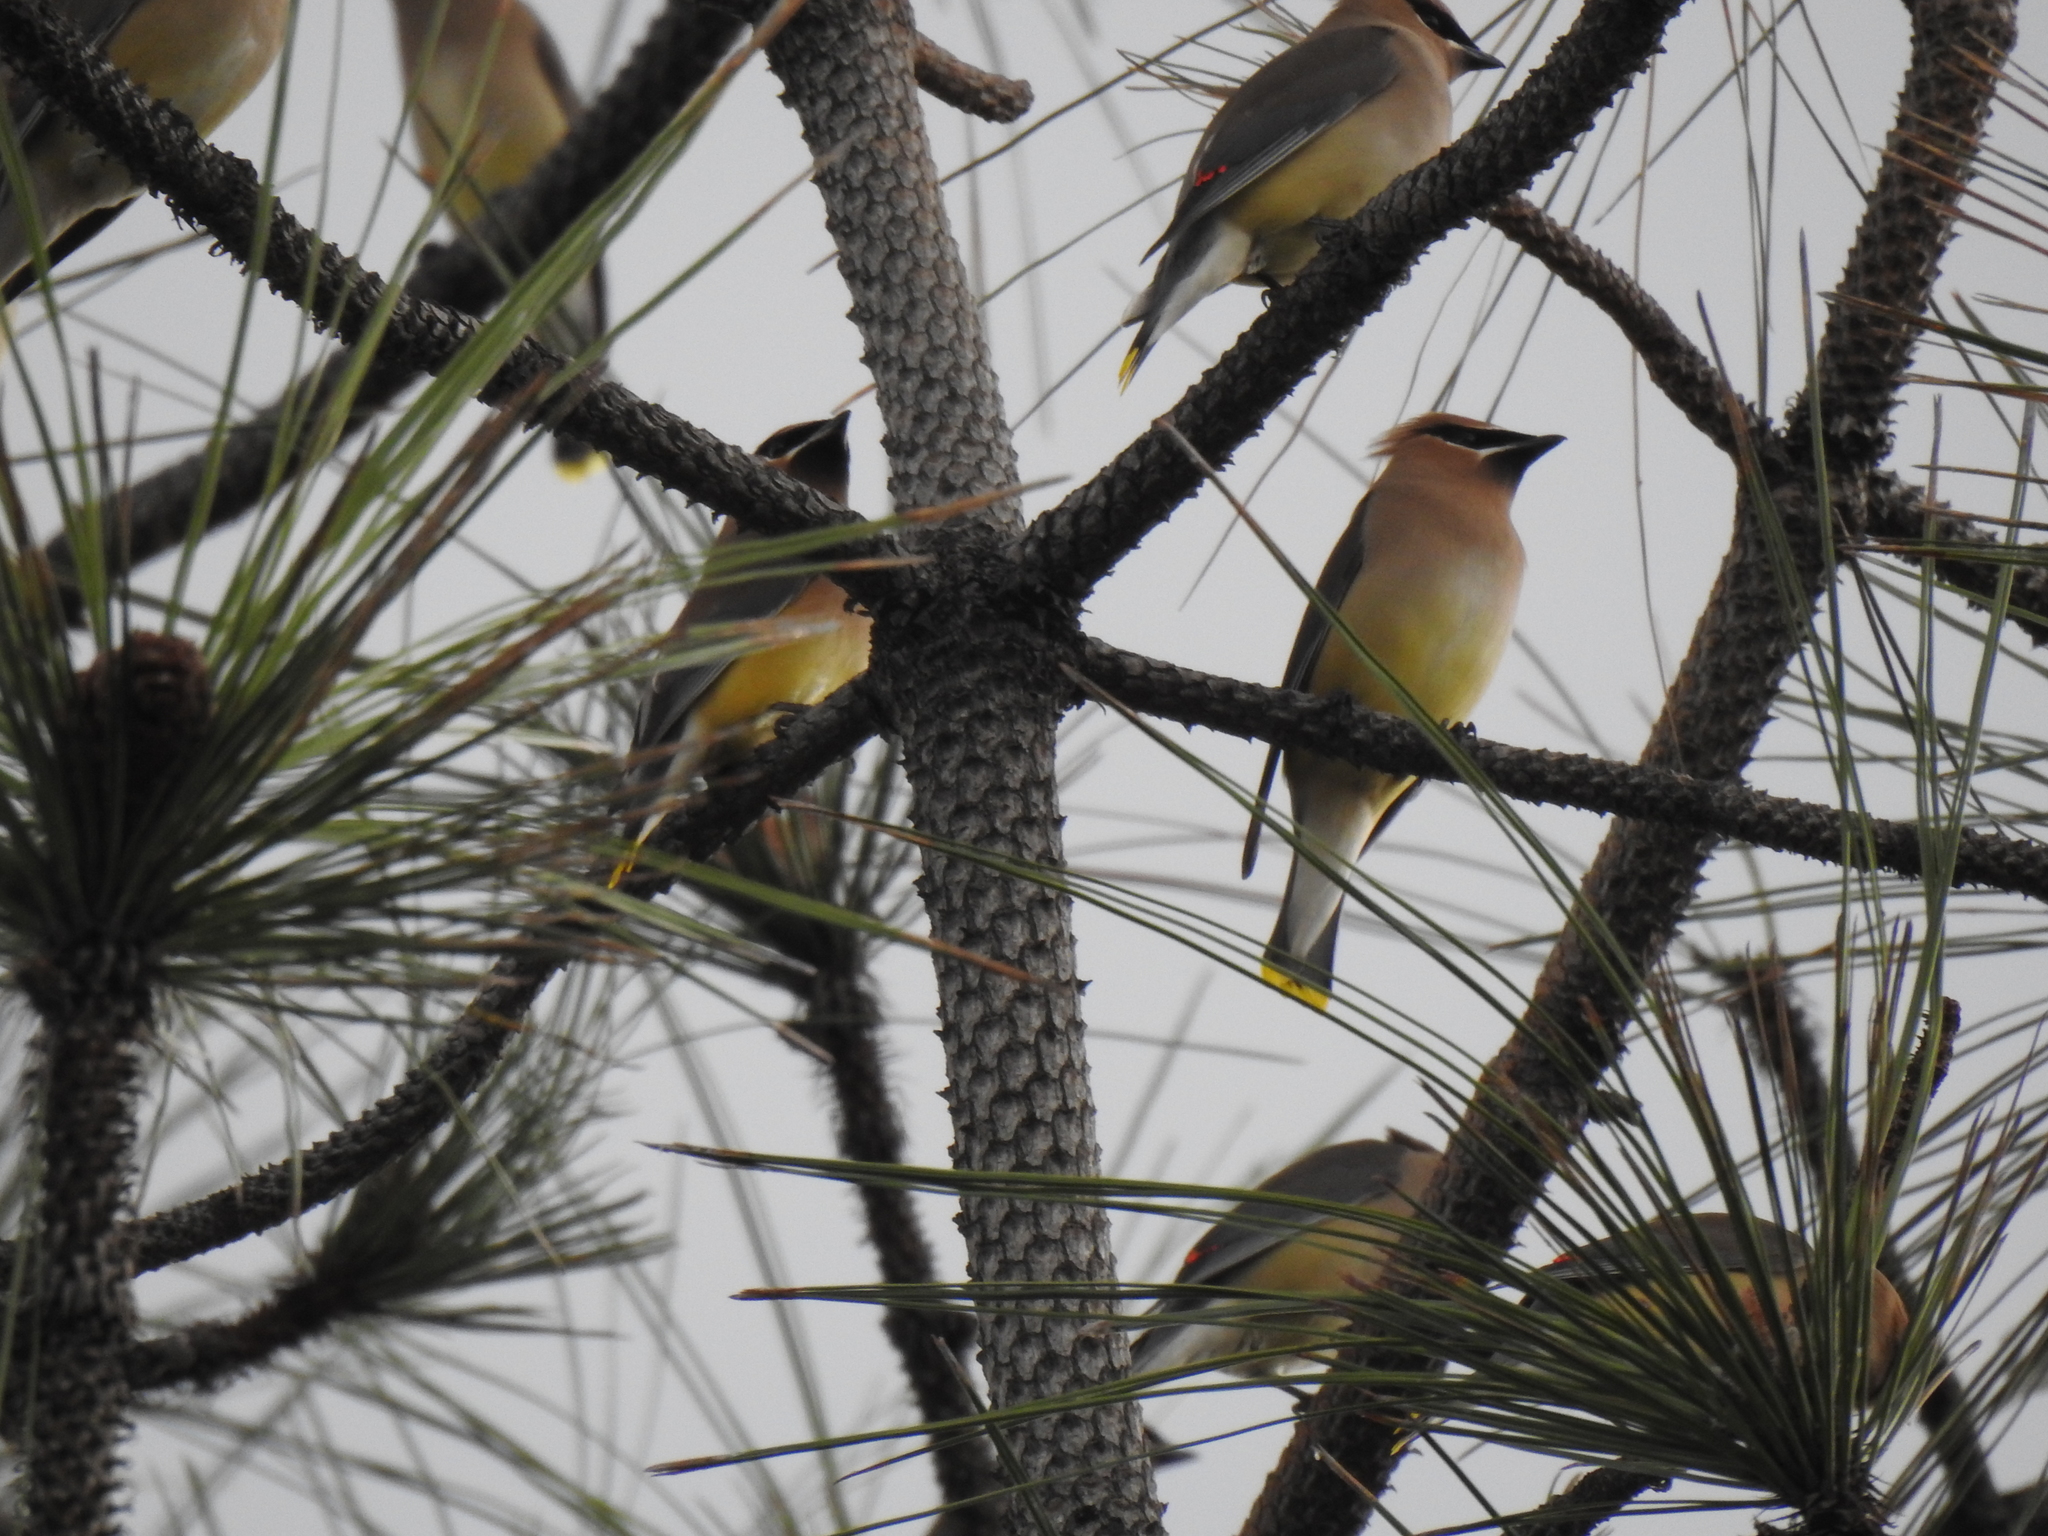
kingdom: Animalia
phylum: Chordata
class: Aves
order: Passeriformes
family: Bombycillidae
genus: Bombycilla
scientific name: Bombycilla cedrorum
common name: Cedar waxwing
